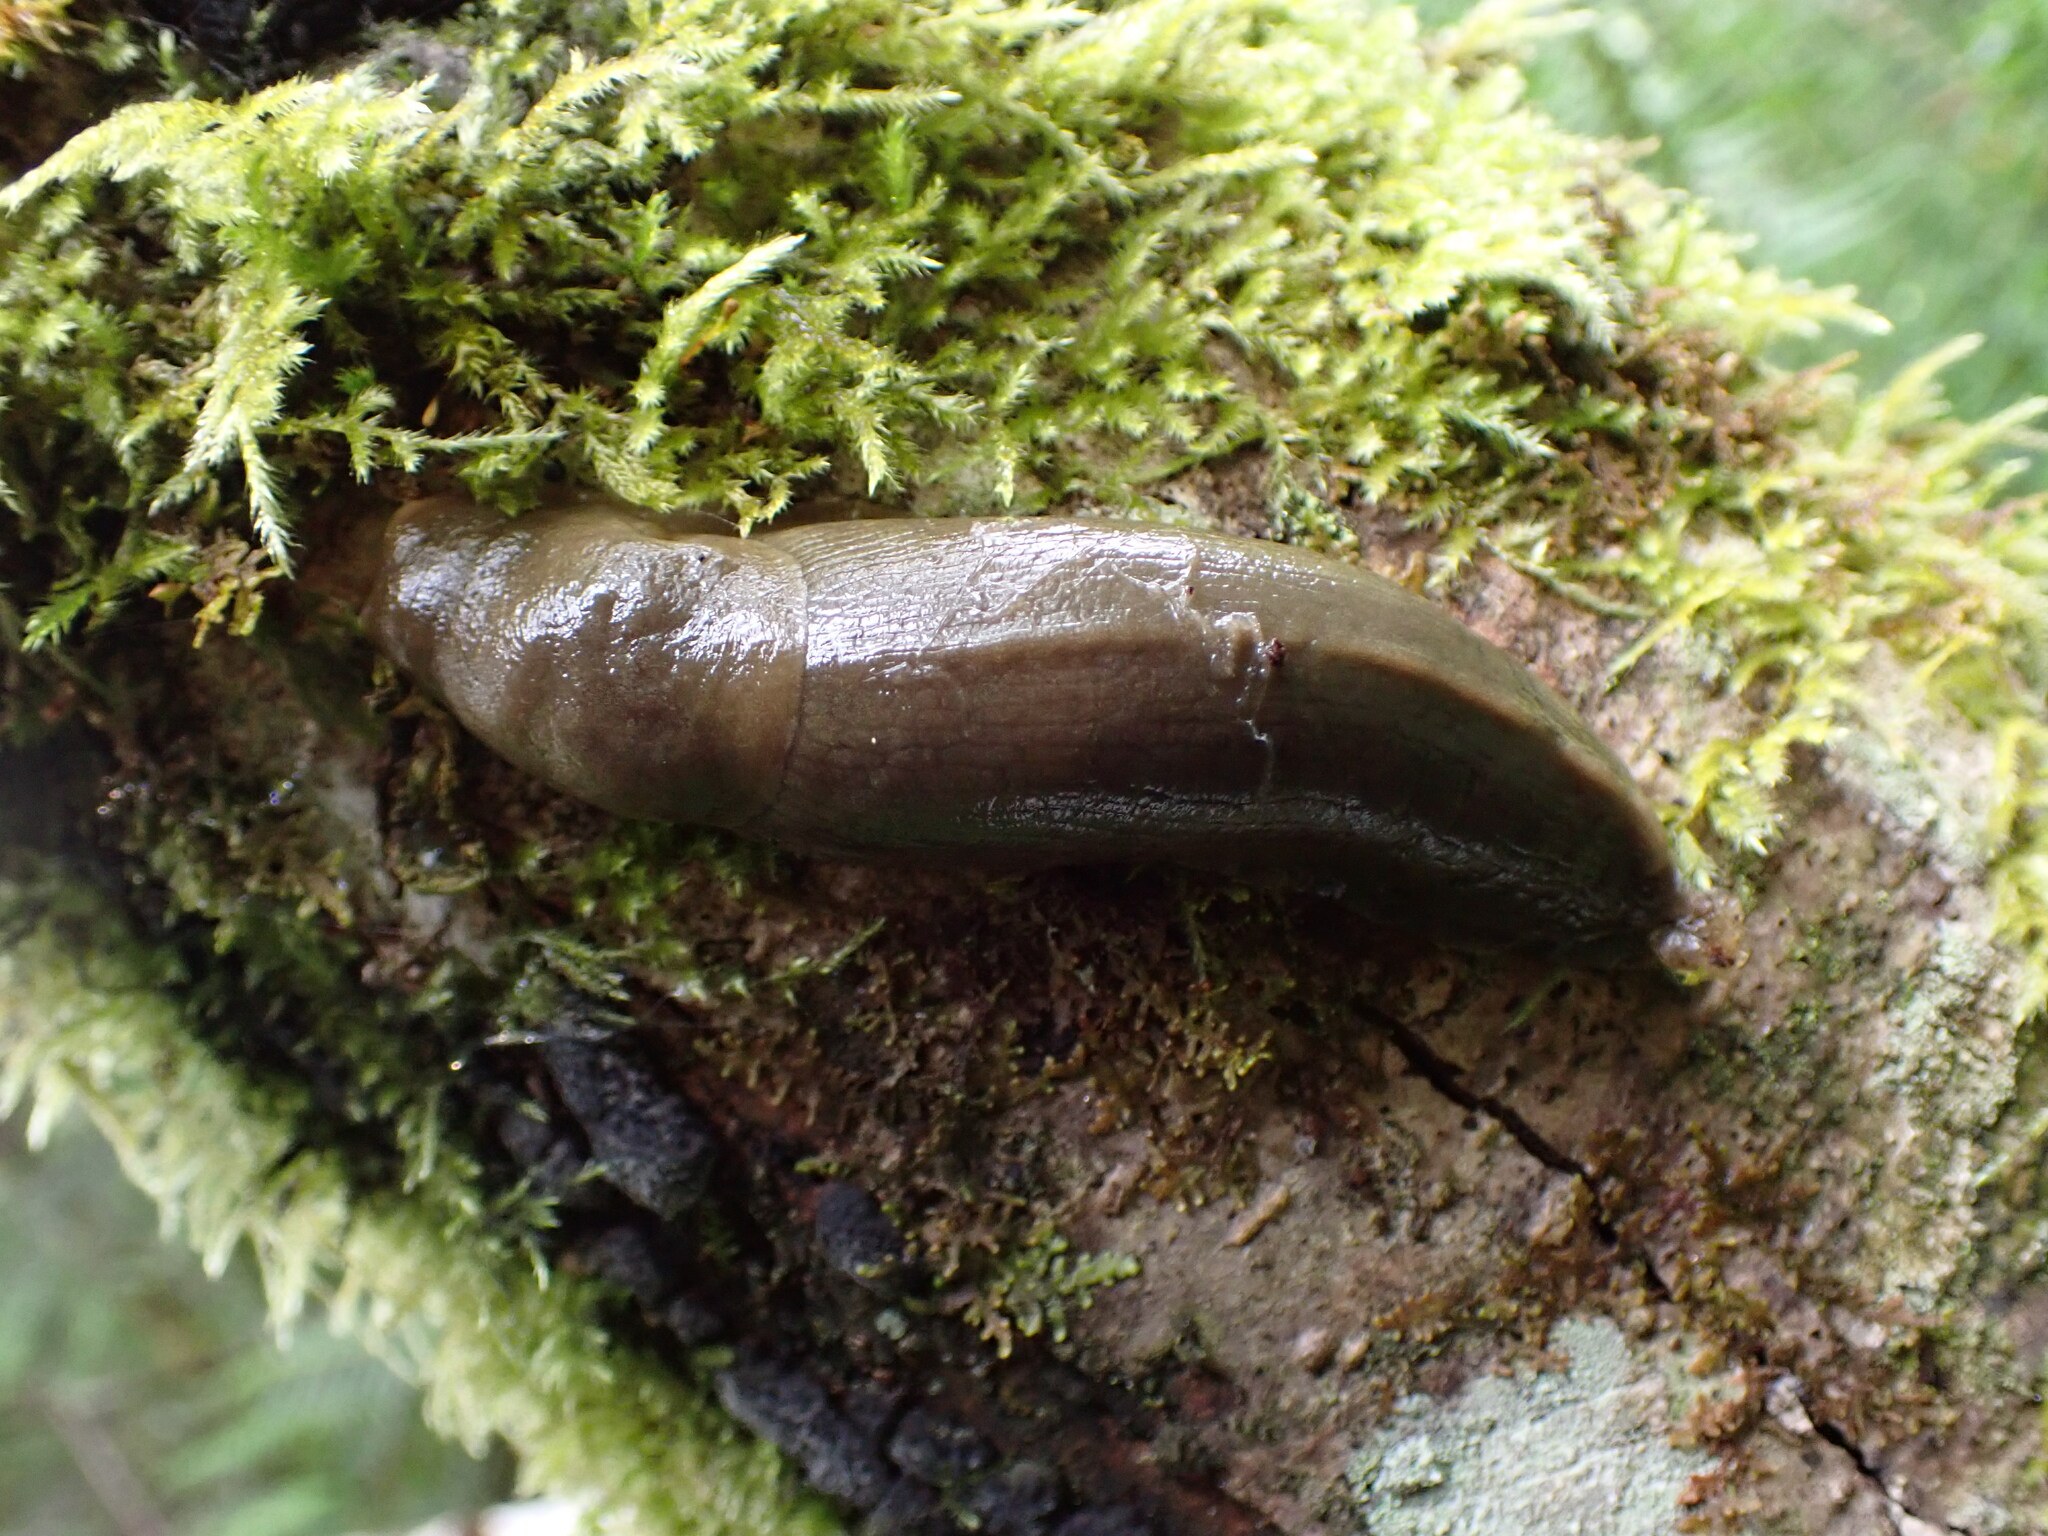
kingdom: Animalia
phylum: Mollusca
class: Gastropoda
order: Stylommatophora
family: Ariolimacidae
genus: Ariolimax
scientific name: Ariolimax columbianus
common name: Pacific banana slug
